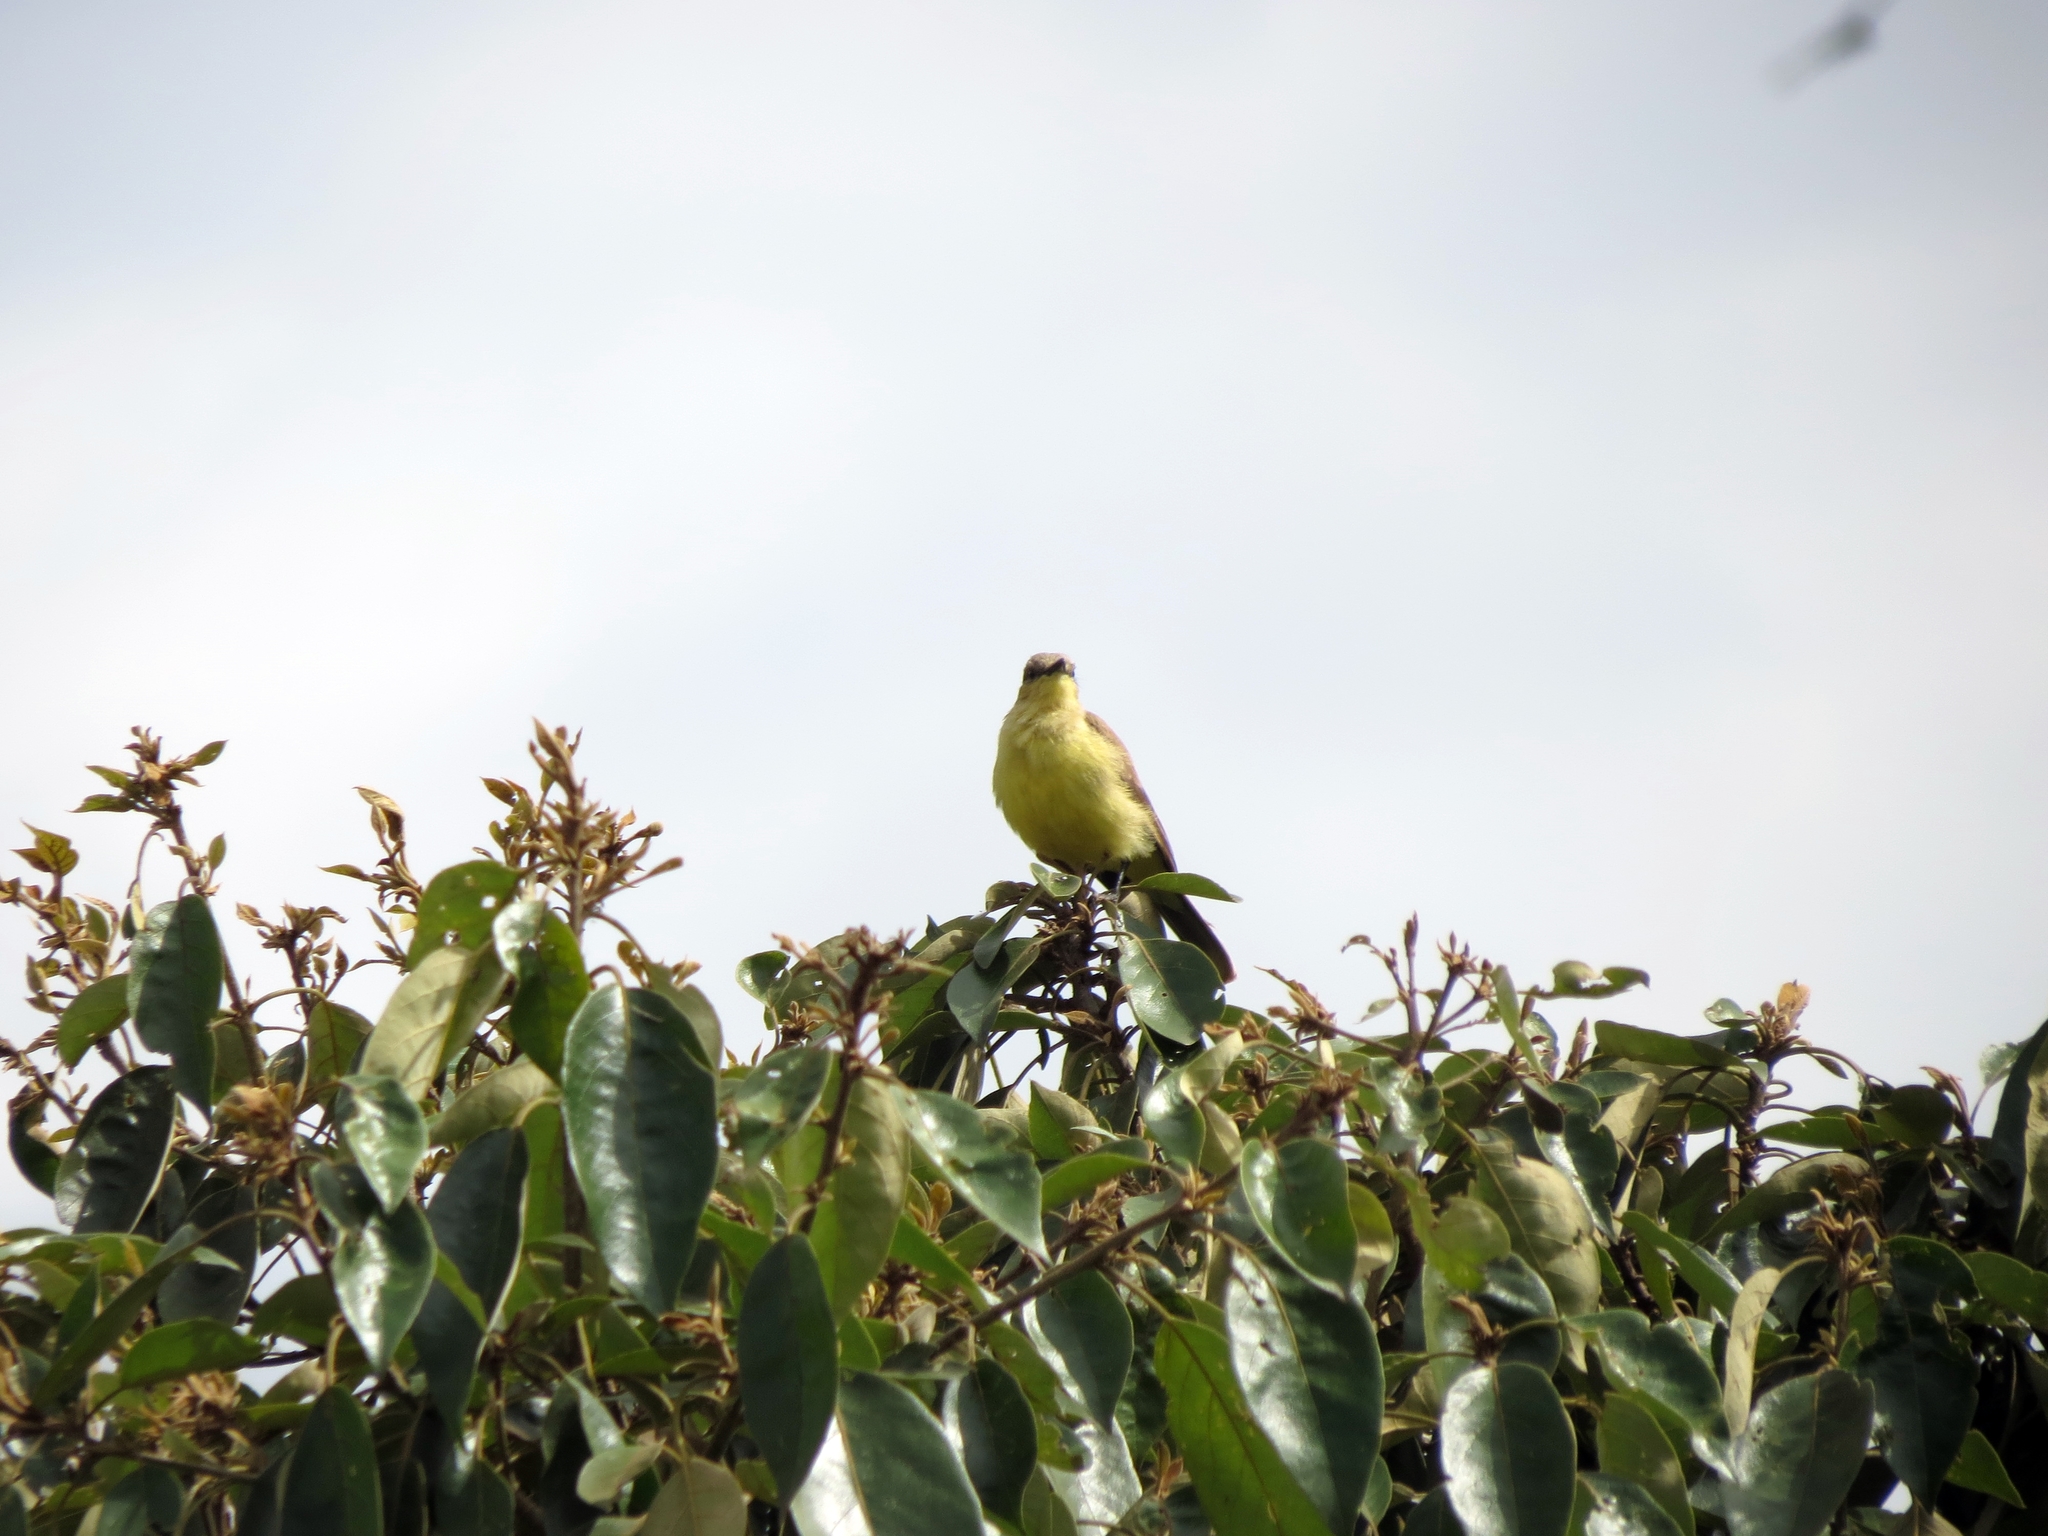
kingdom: Animalia
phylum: Chordata
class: Aves
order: Passeriformes
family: Tyrannidae
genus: Machetornis
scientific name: Machetornis rixosa
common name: Cattle tyrant
